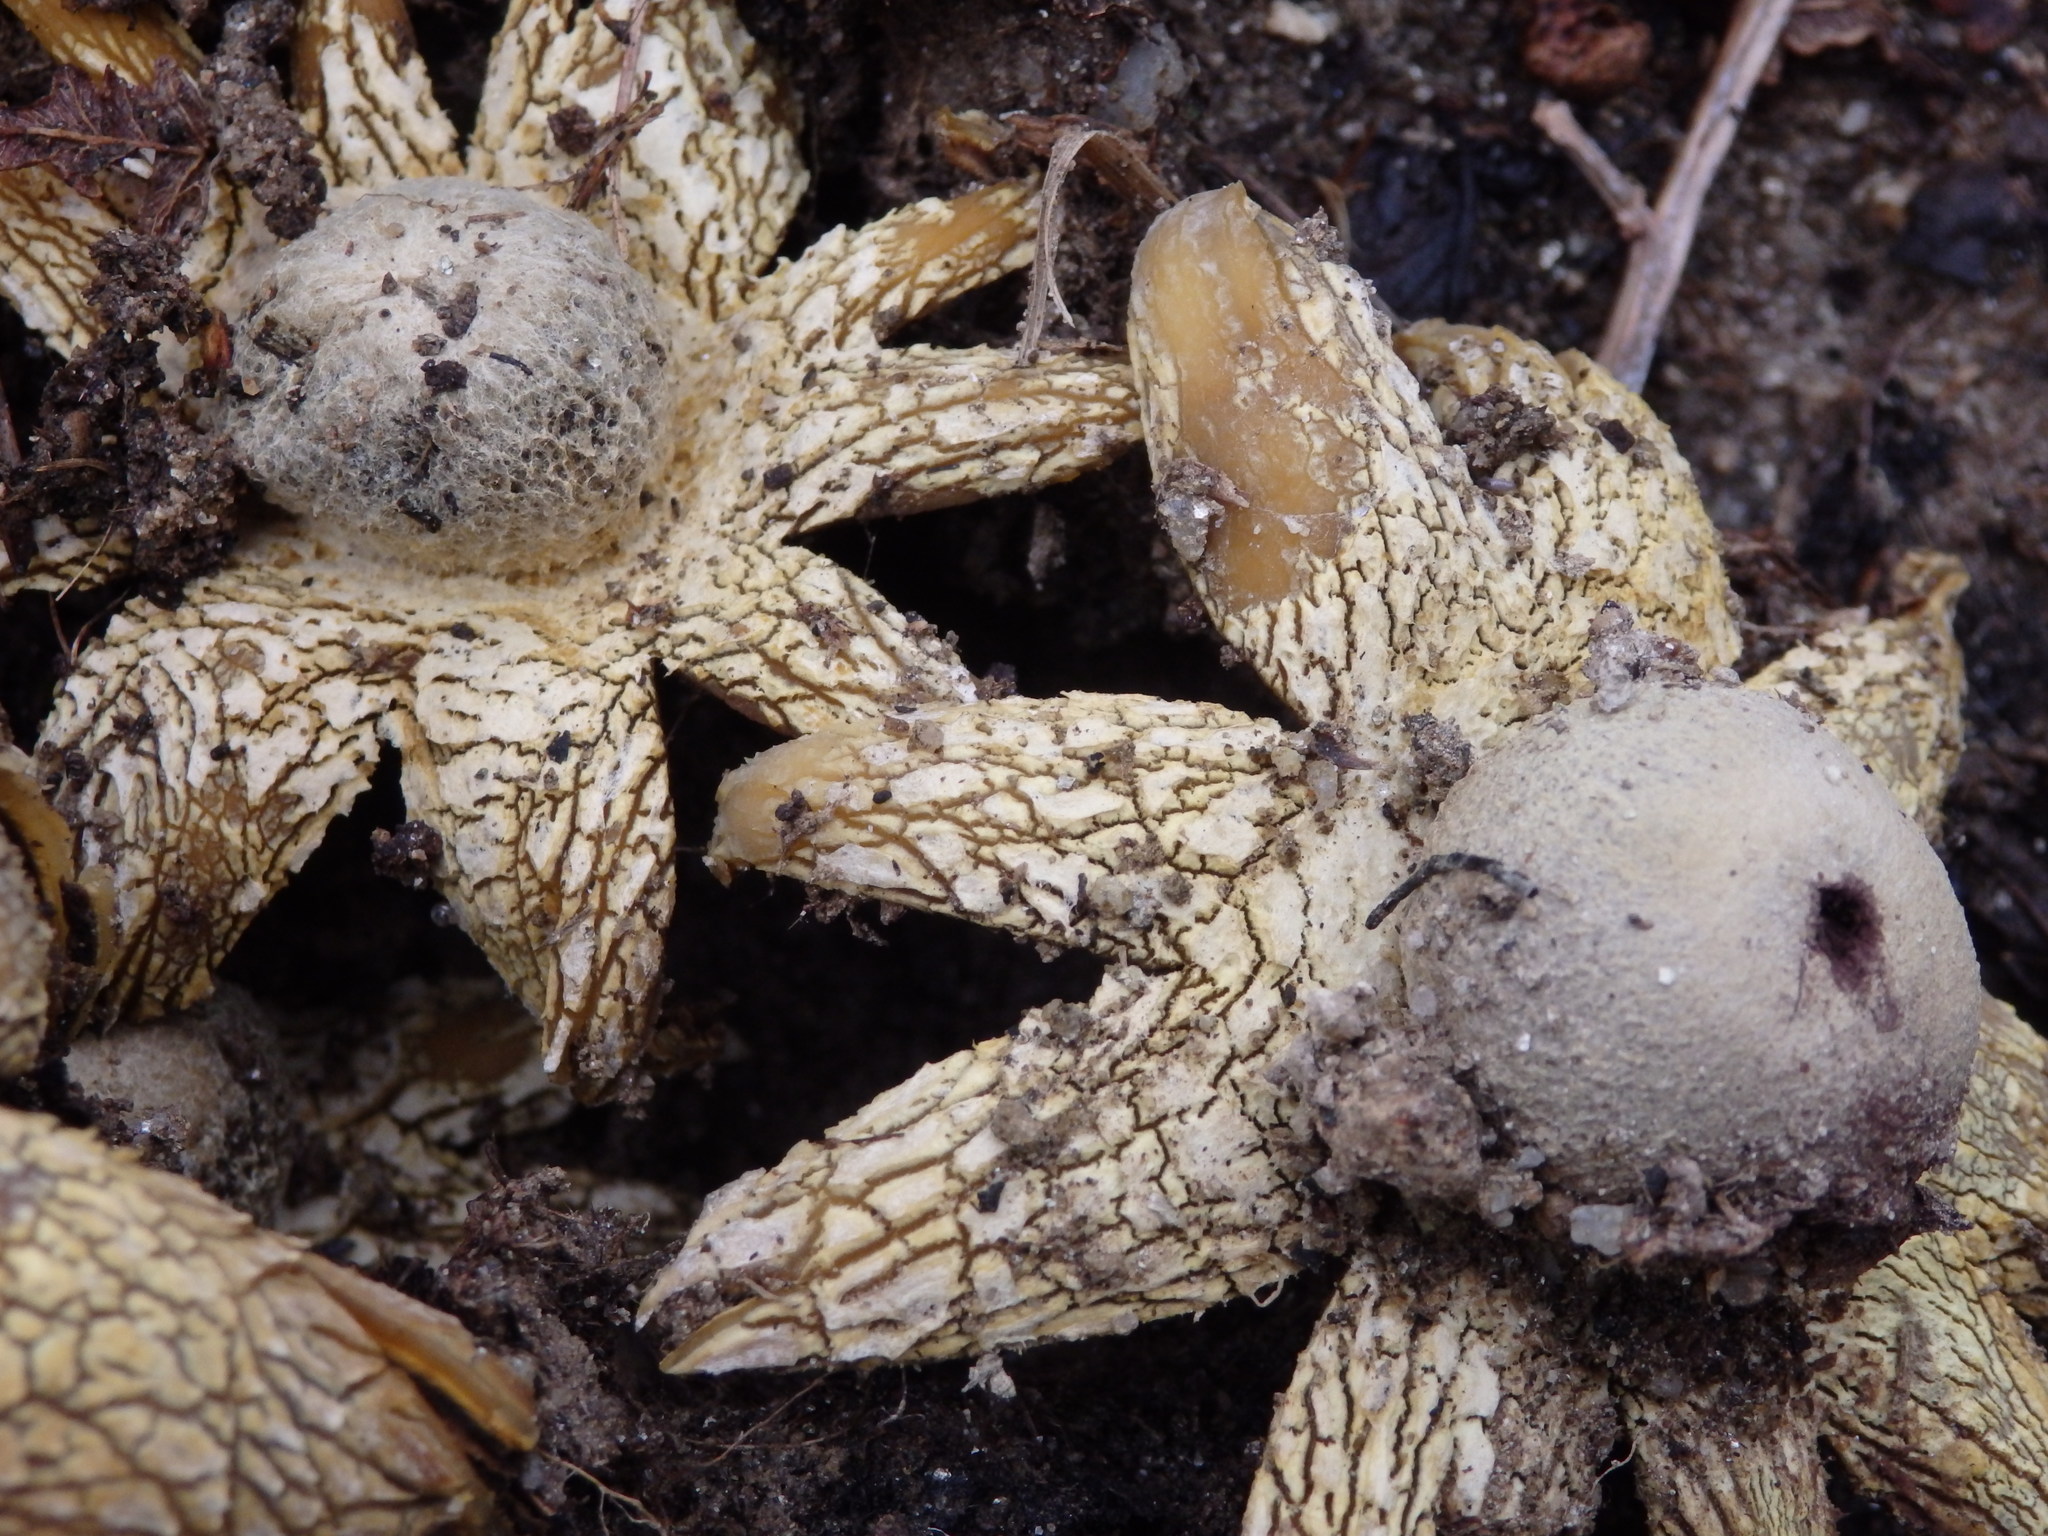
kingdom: Fungi
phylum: Basidiomycota
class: Agaricomycetes
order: Boletales
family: Diplocystidiaceae
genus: Astraeus
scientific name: Astraeus hygrometricus
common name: Barometer earthstar
